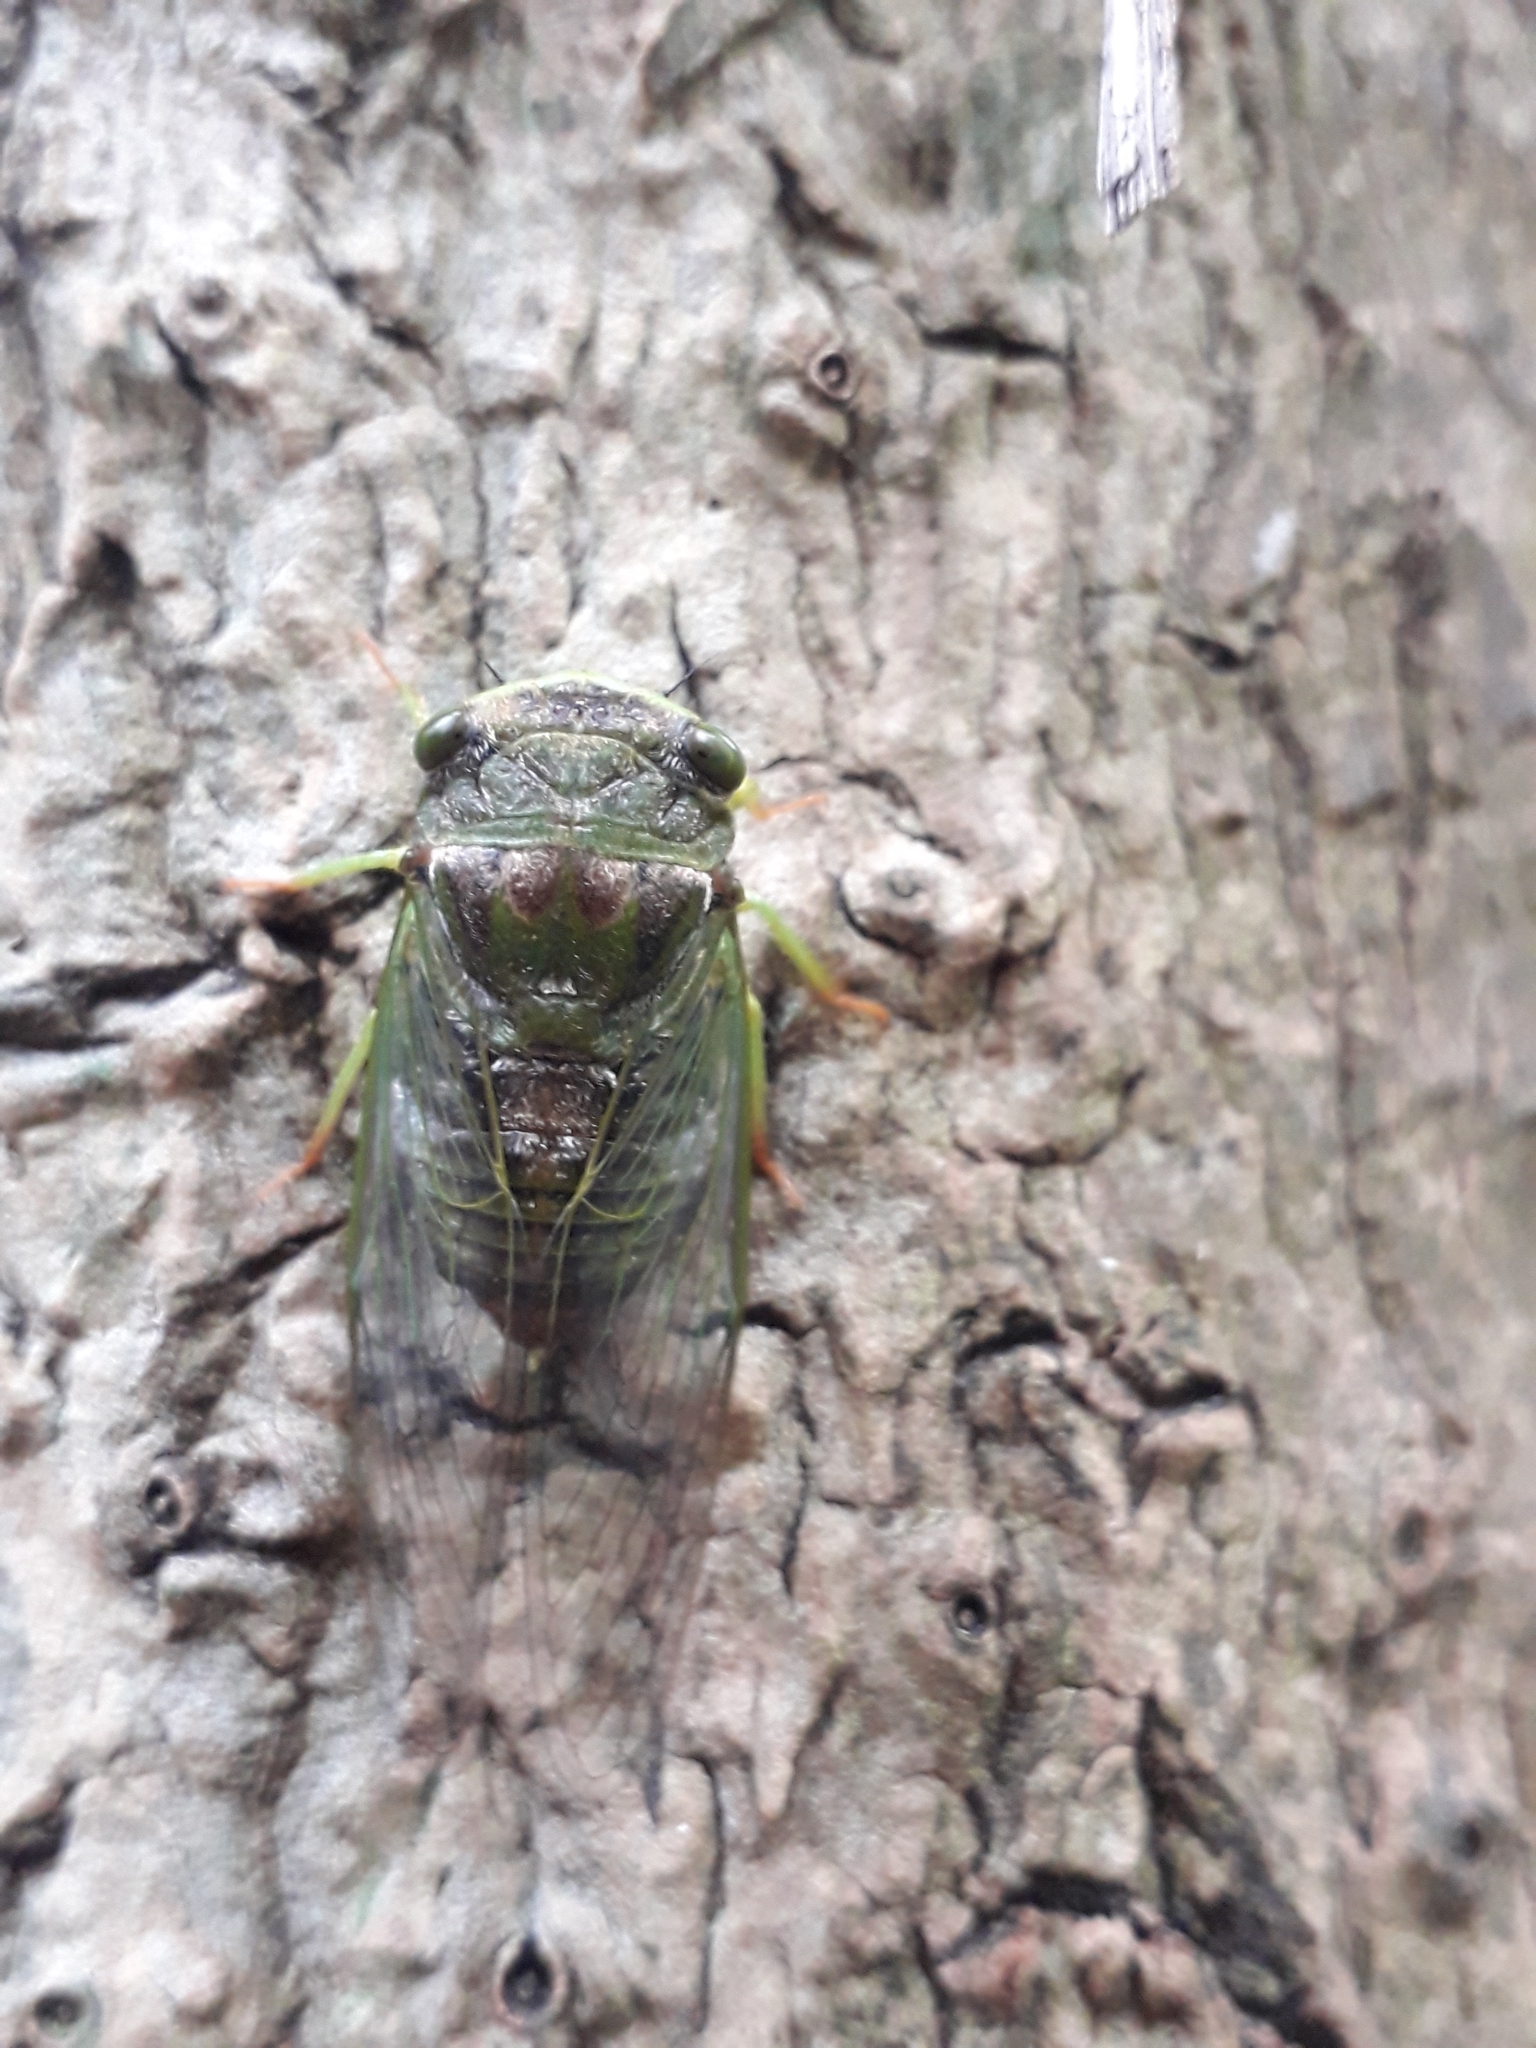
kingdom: Animalia
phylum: Arthropoda
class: Insecta
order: Hemiptera
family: Cicadidae
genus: Acanthoventris
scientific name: Acanthoventris drewseni
